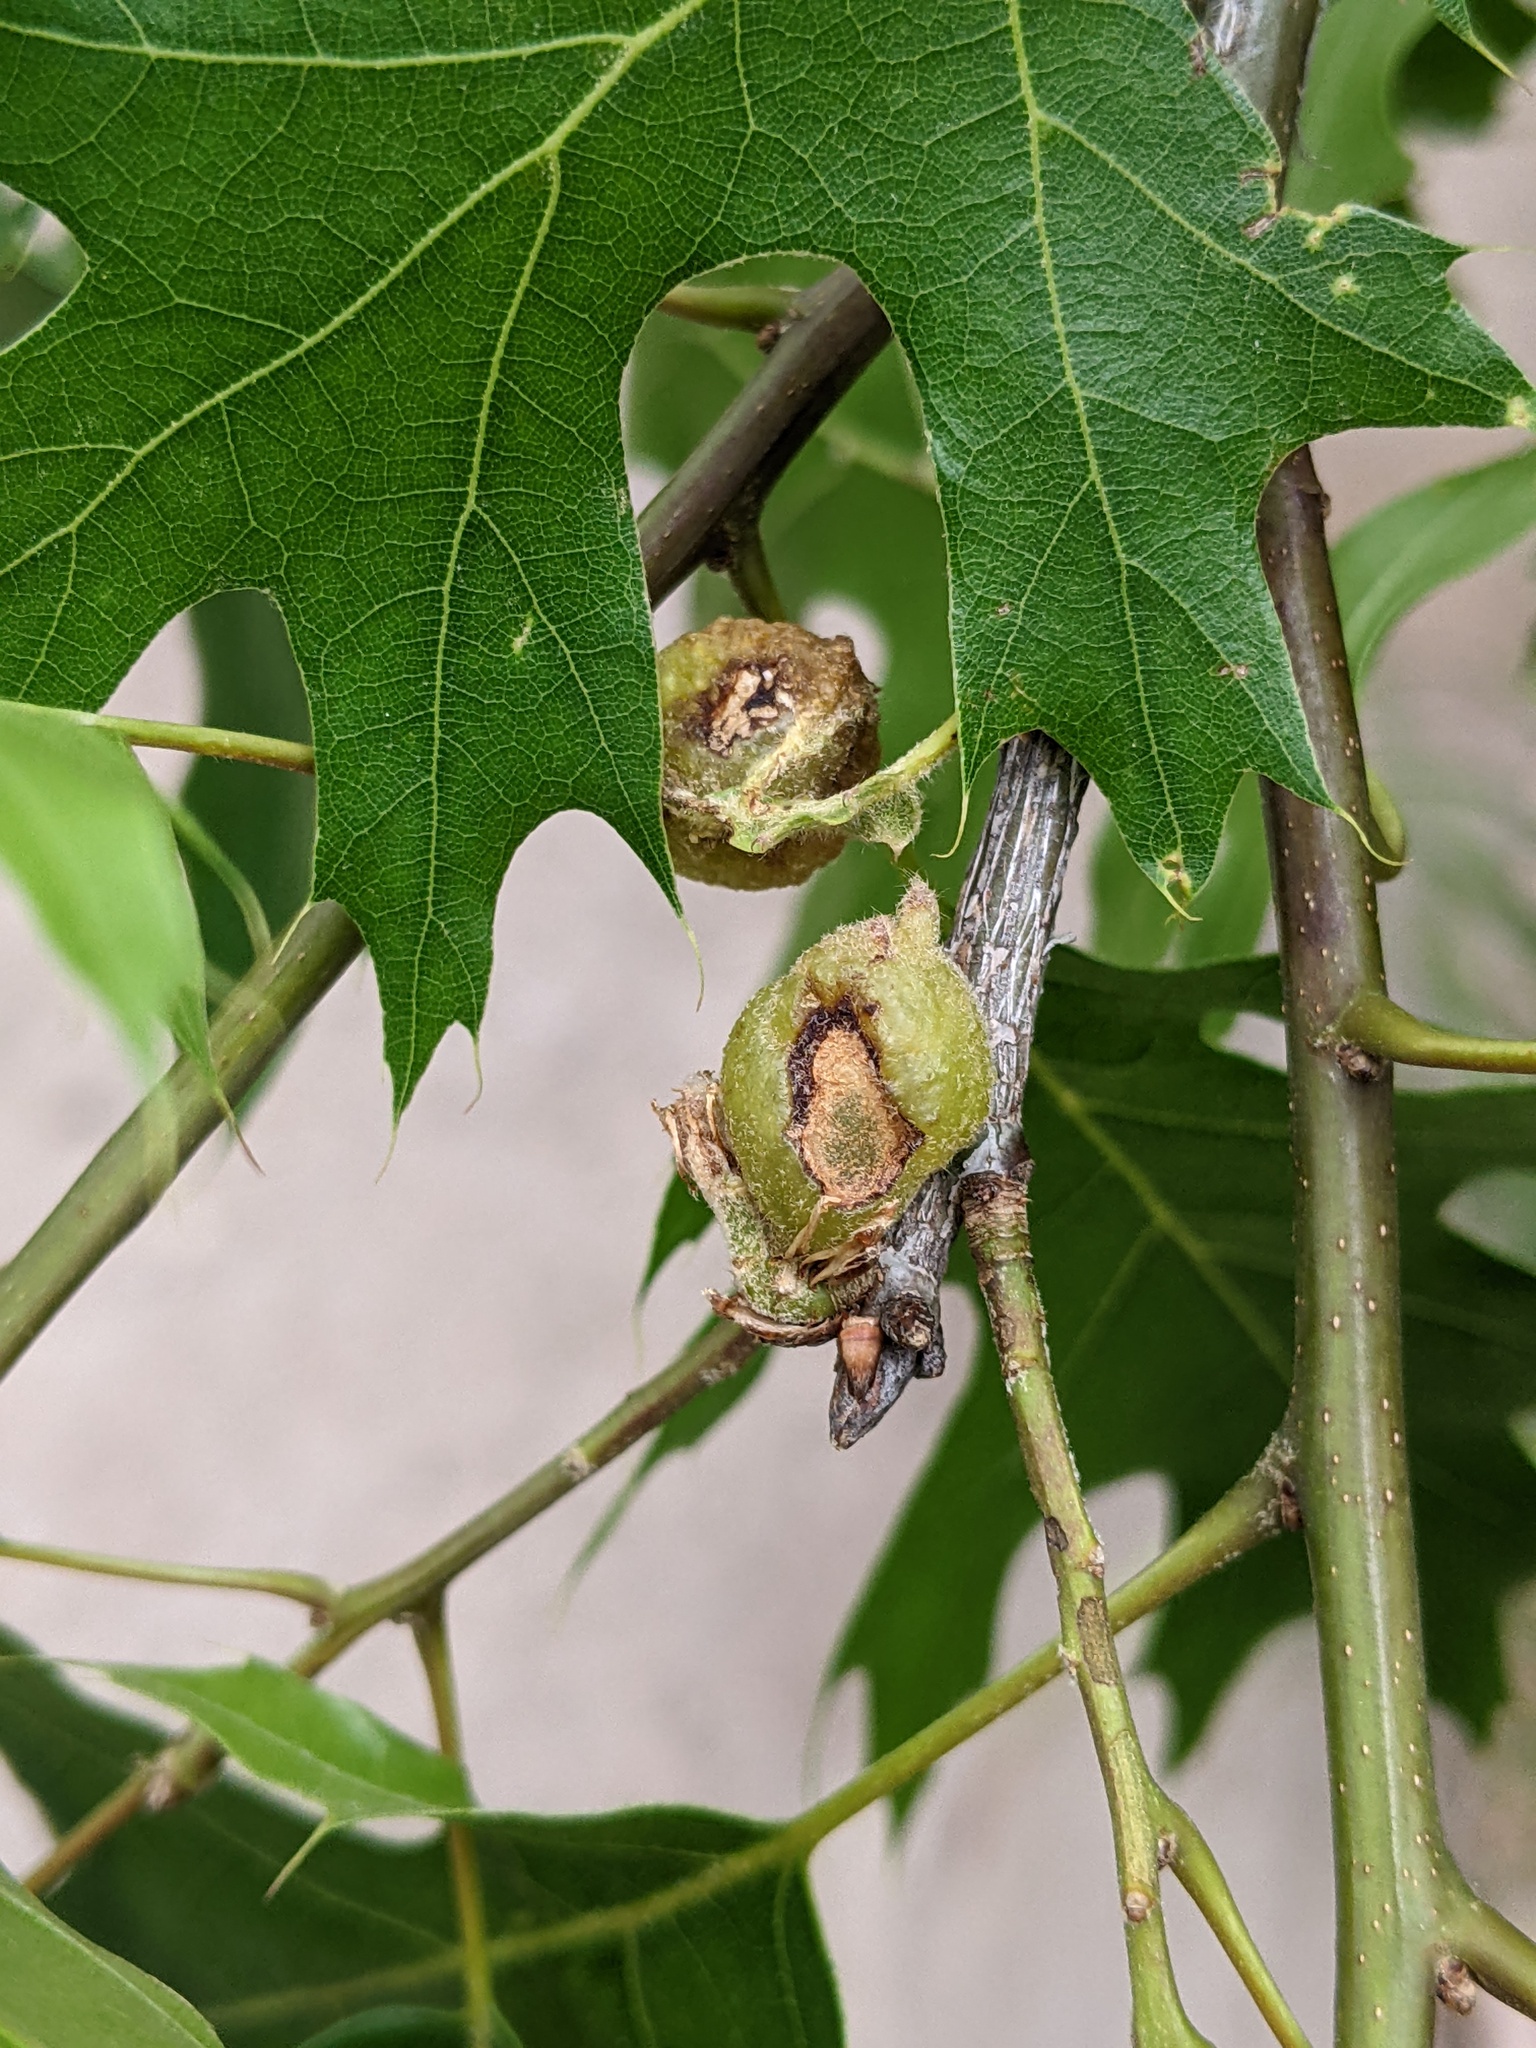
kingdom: Animalia
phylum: Arthropoda
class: Insecta
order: Hymenoptera
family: Cynipidae
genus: Dryocosmus
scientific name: Dryocosmus quercuspalustris
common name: Succulent oak gall wasp
